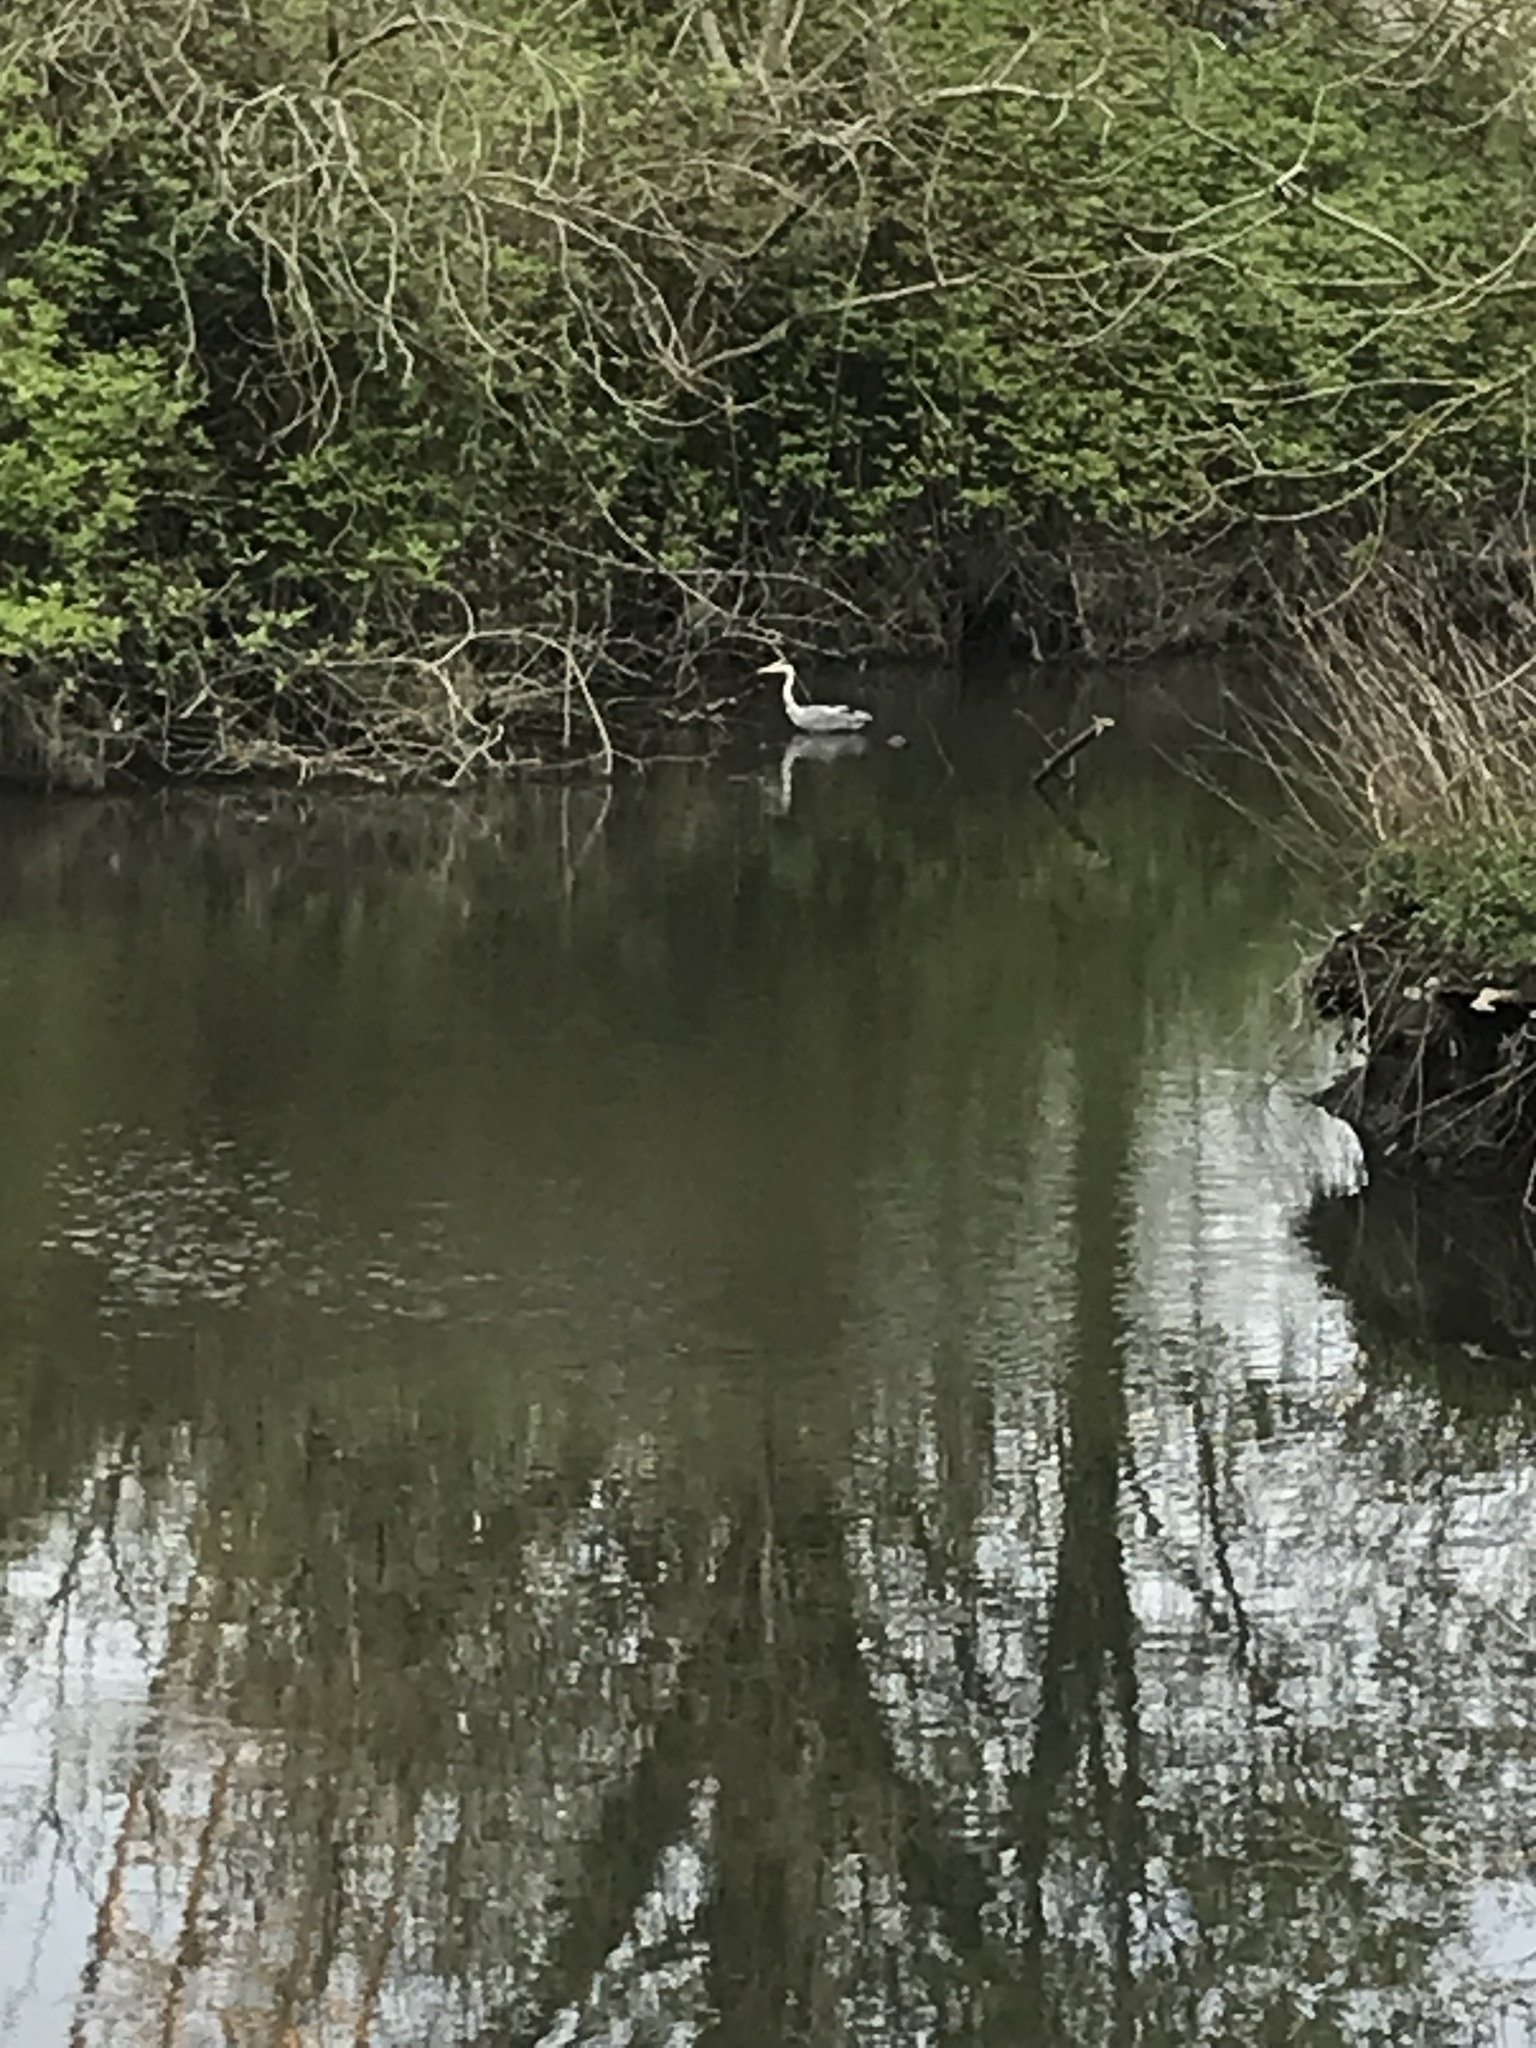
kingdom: Animalia
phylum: Chordata
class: Aves
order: Pelecaniformes
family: Ardeidae
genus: Ardea
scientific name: Ardea cinerea
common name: Grey heron
